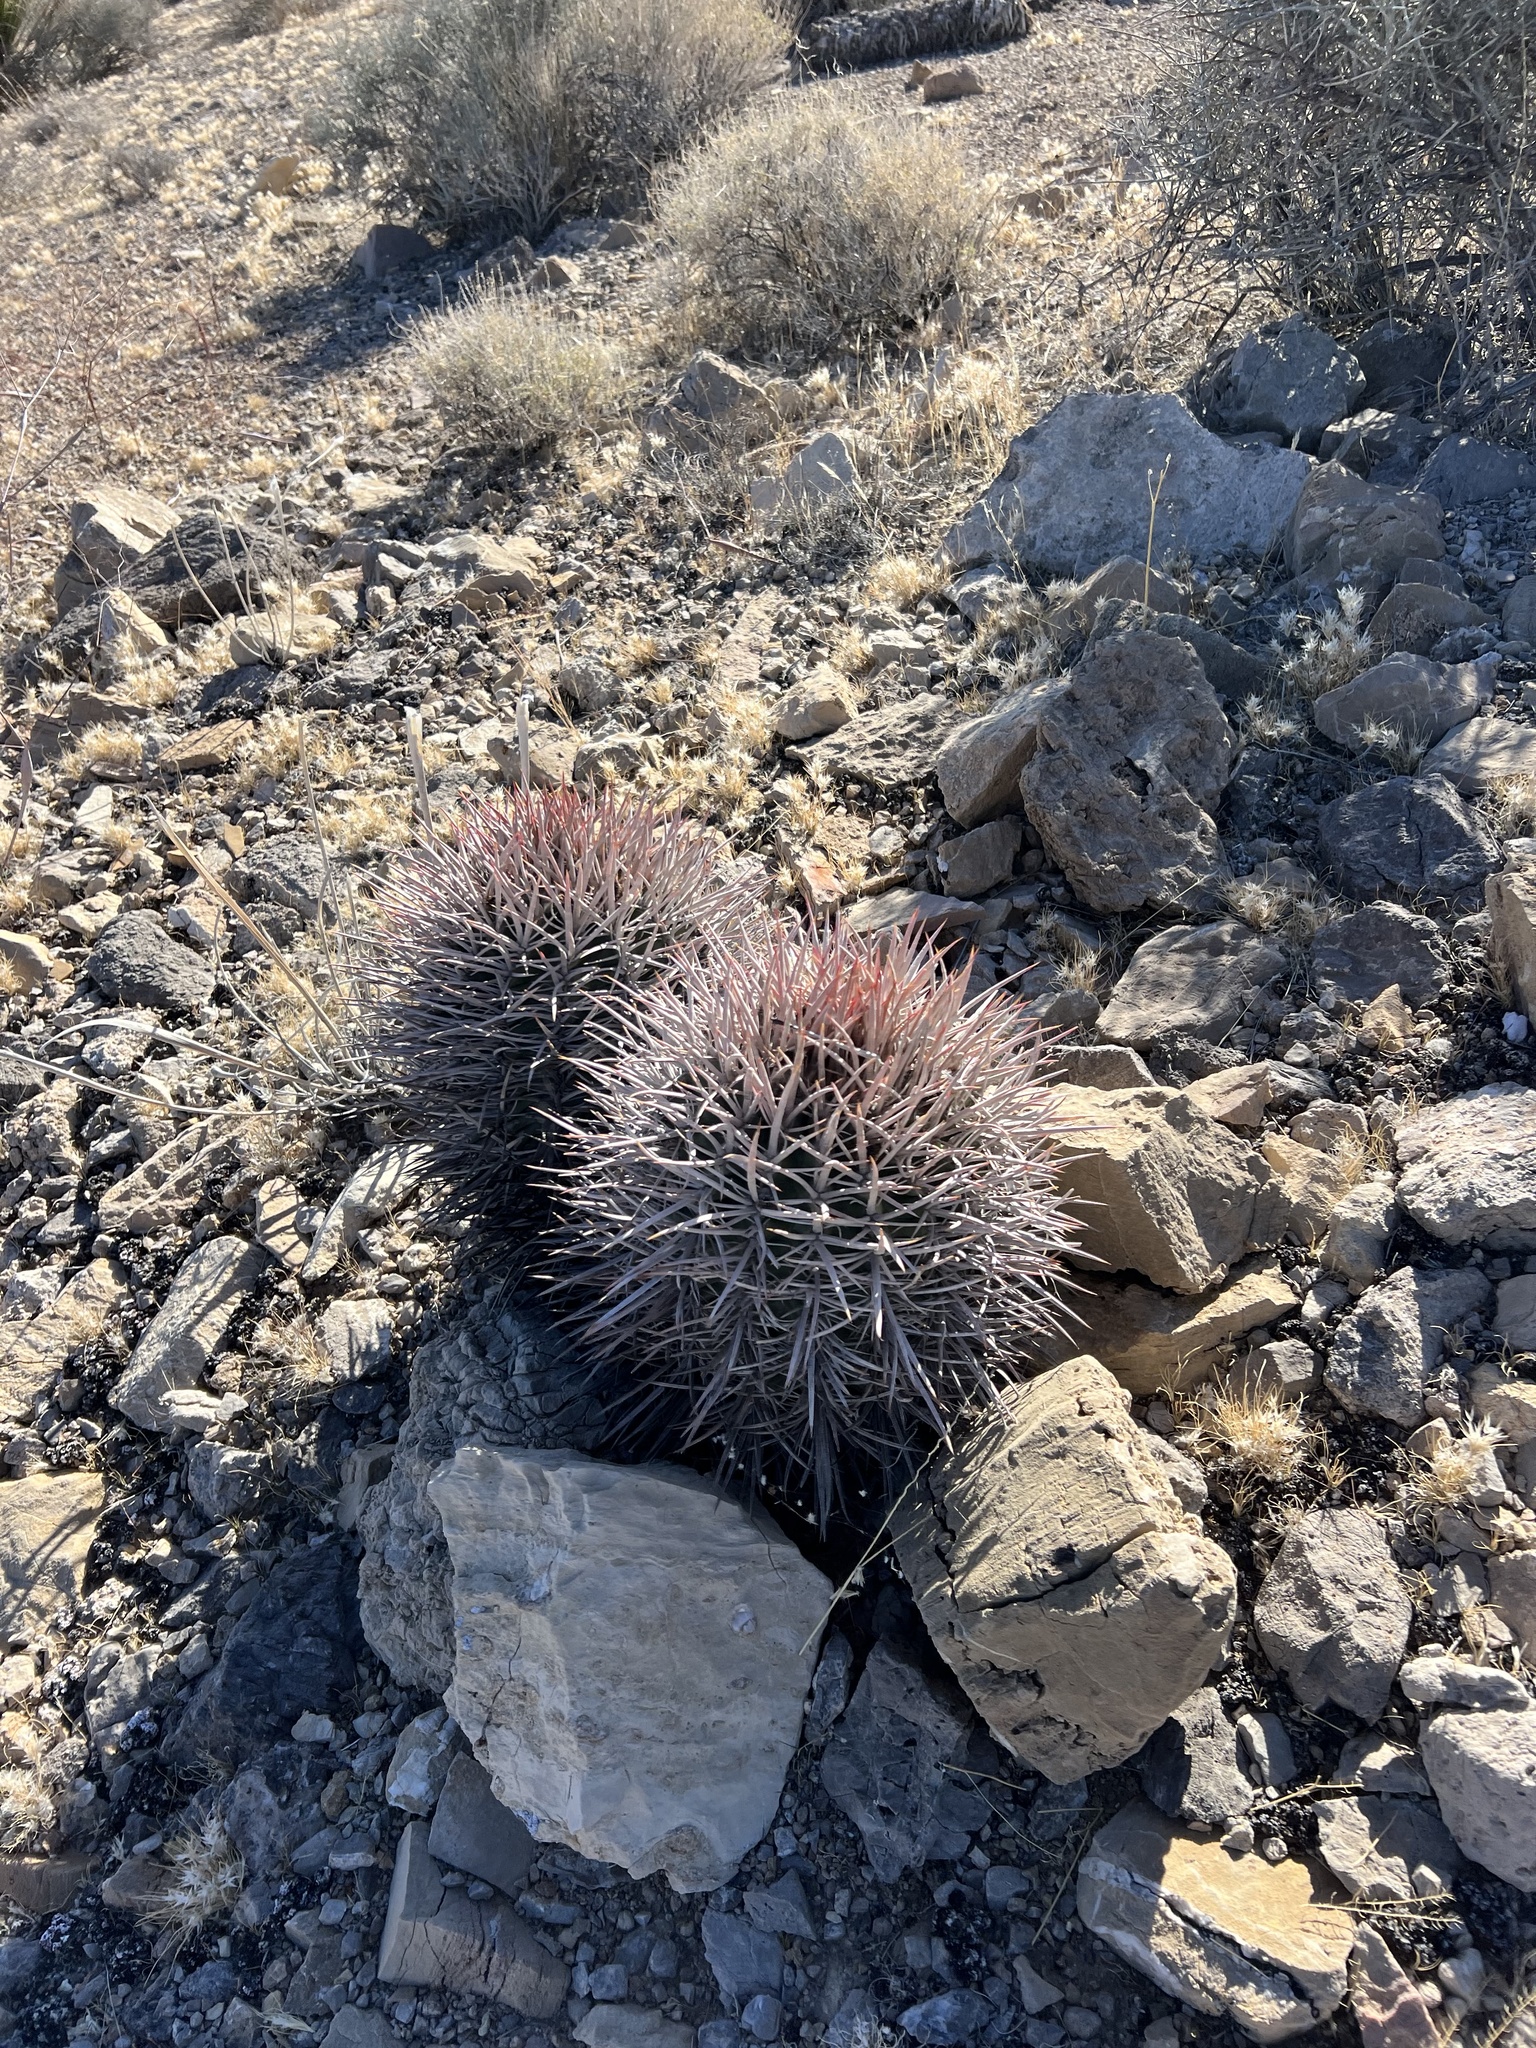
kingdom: Plantae
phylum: Tracheophyta
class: Magnoliopsida
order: Caryophyllales
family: Cactaceae
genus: Echinocactus
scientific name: Echinocactus polycephalus
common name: Cottontop cactus
